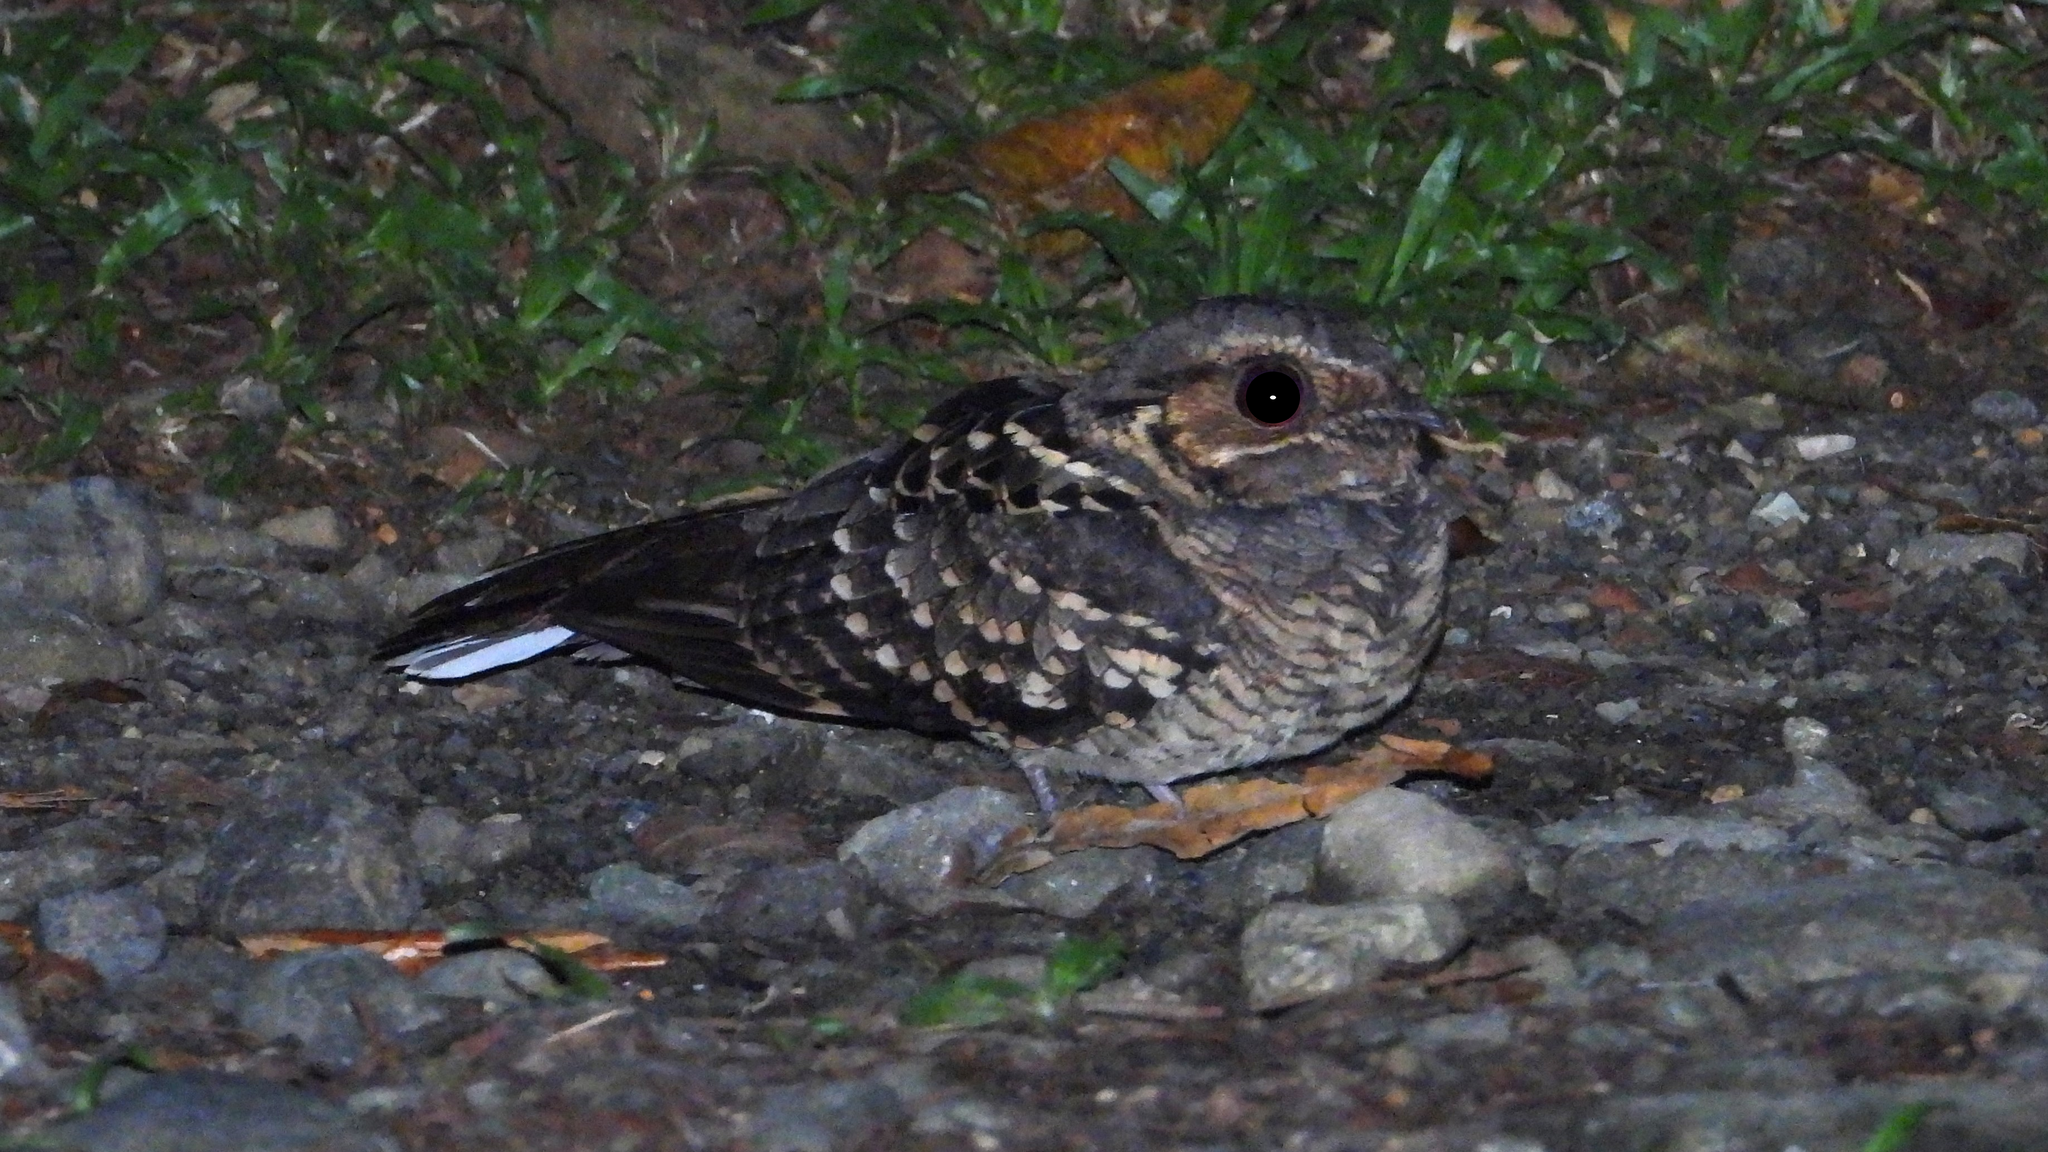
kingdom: Animalia
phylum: Chordata
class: Aves
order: Caprimulgiformes
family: Caprimulgidae
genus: Nyctidromus
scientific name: Nyctidromus albicollis
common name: Pauraque
